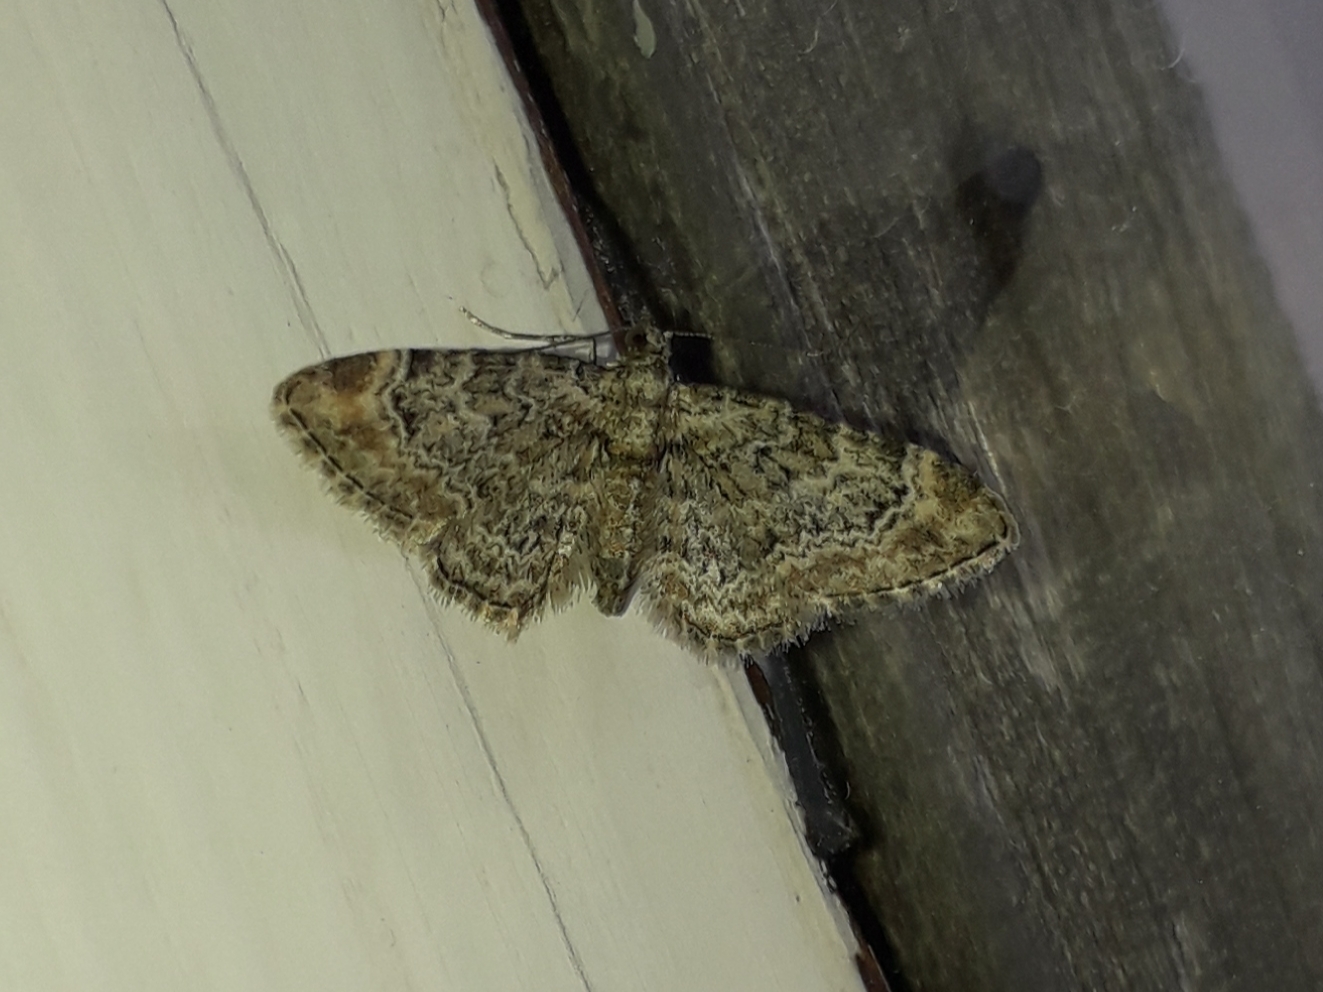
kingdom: Animalia
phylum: Arthropoda
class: Insecta
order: Lepidoptera
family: Geometridae
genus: Gymnoscelis
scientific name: Gymnoscelis rufifasciata
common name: Double-striped pug
